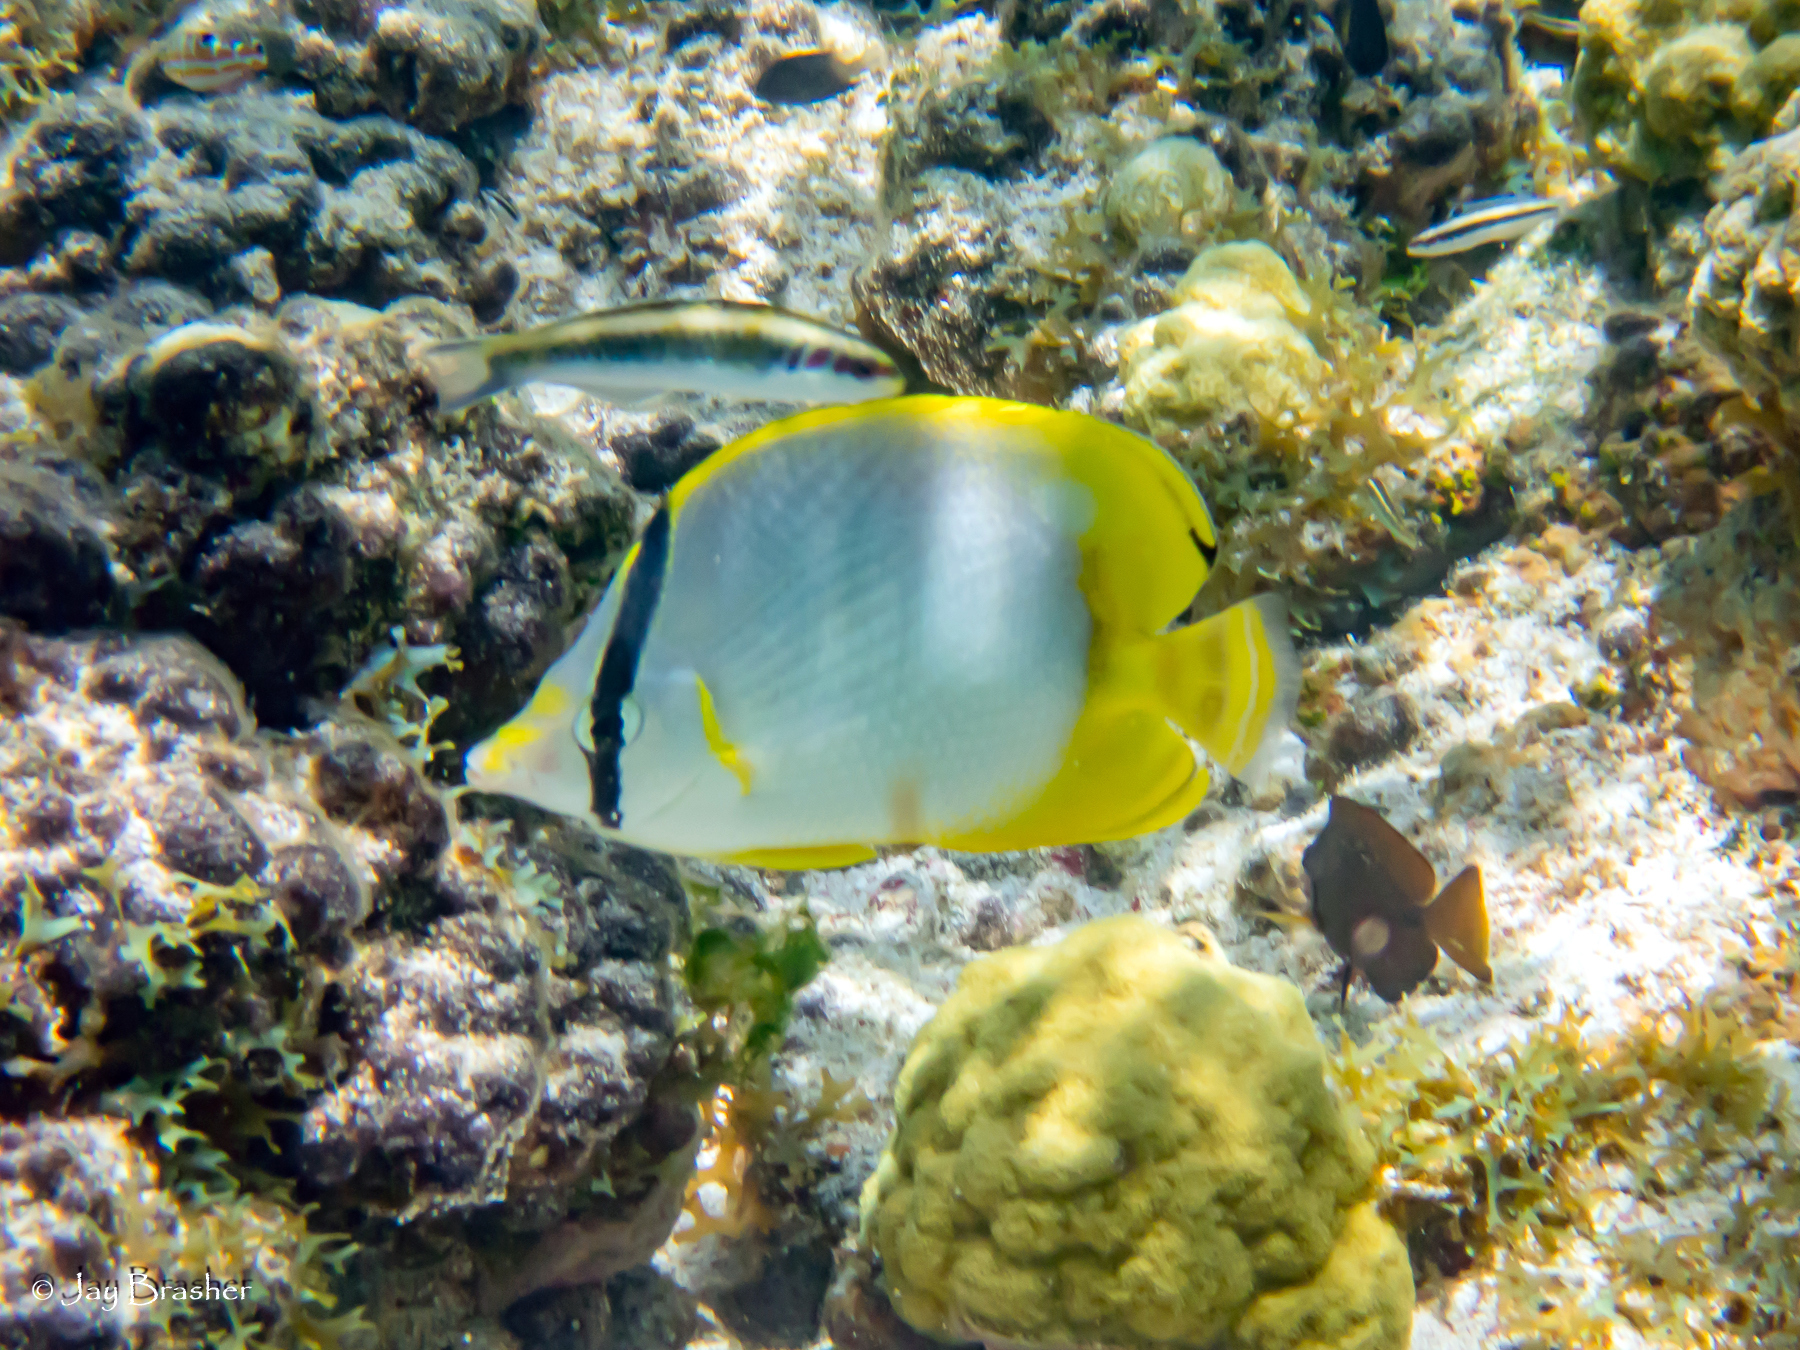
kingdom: Animalia
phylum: Chordata
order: Perciformes
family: Labridae
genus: Thalassoma
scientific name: Thalassoma bifasciatum
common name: Bluehead wrasse
